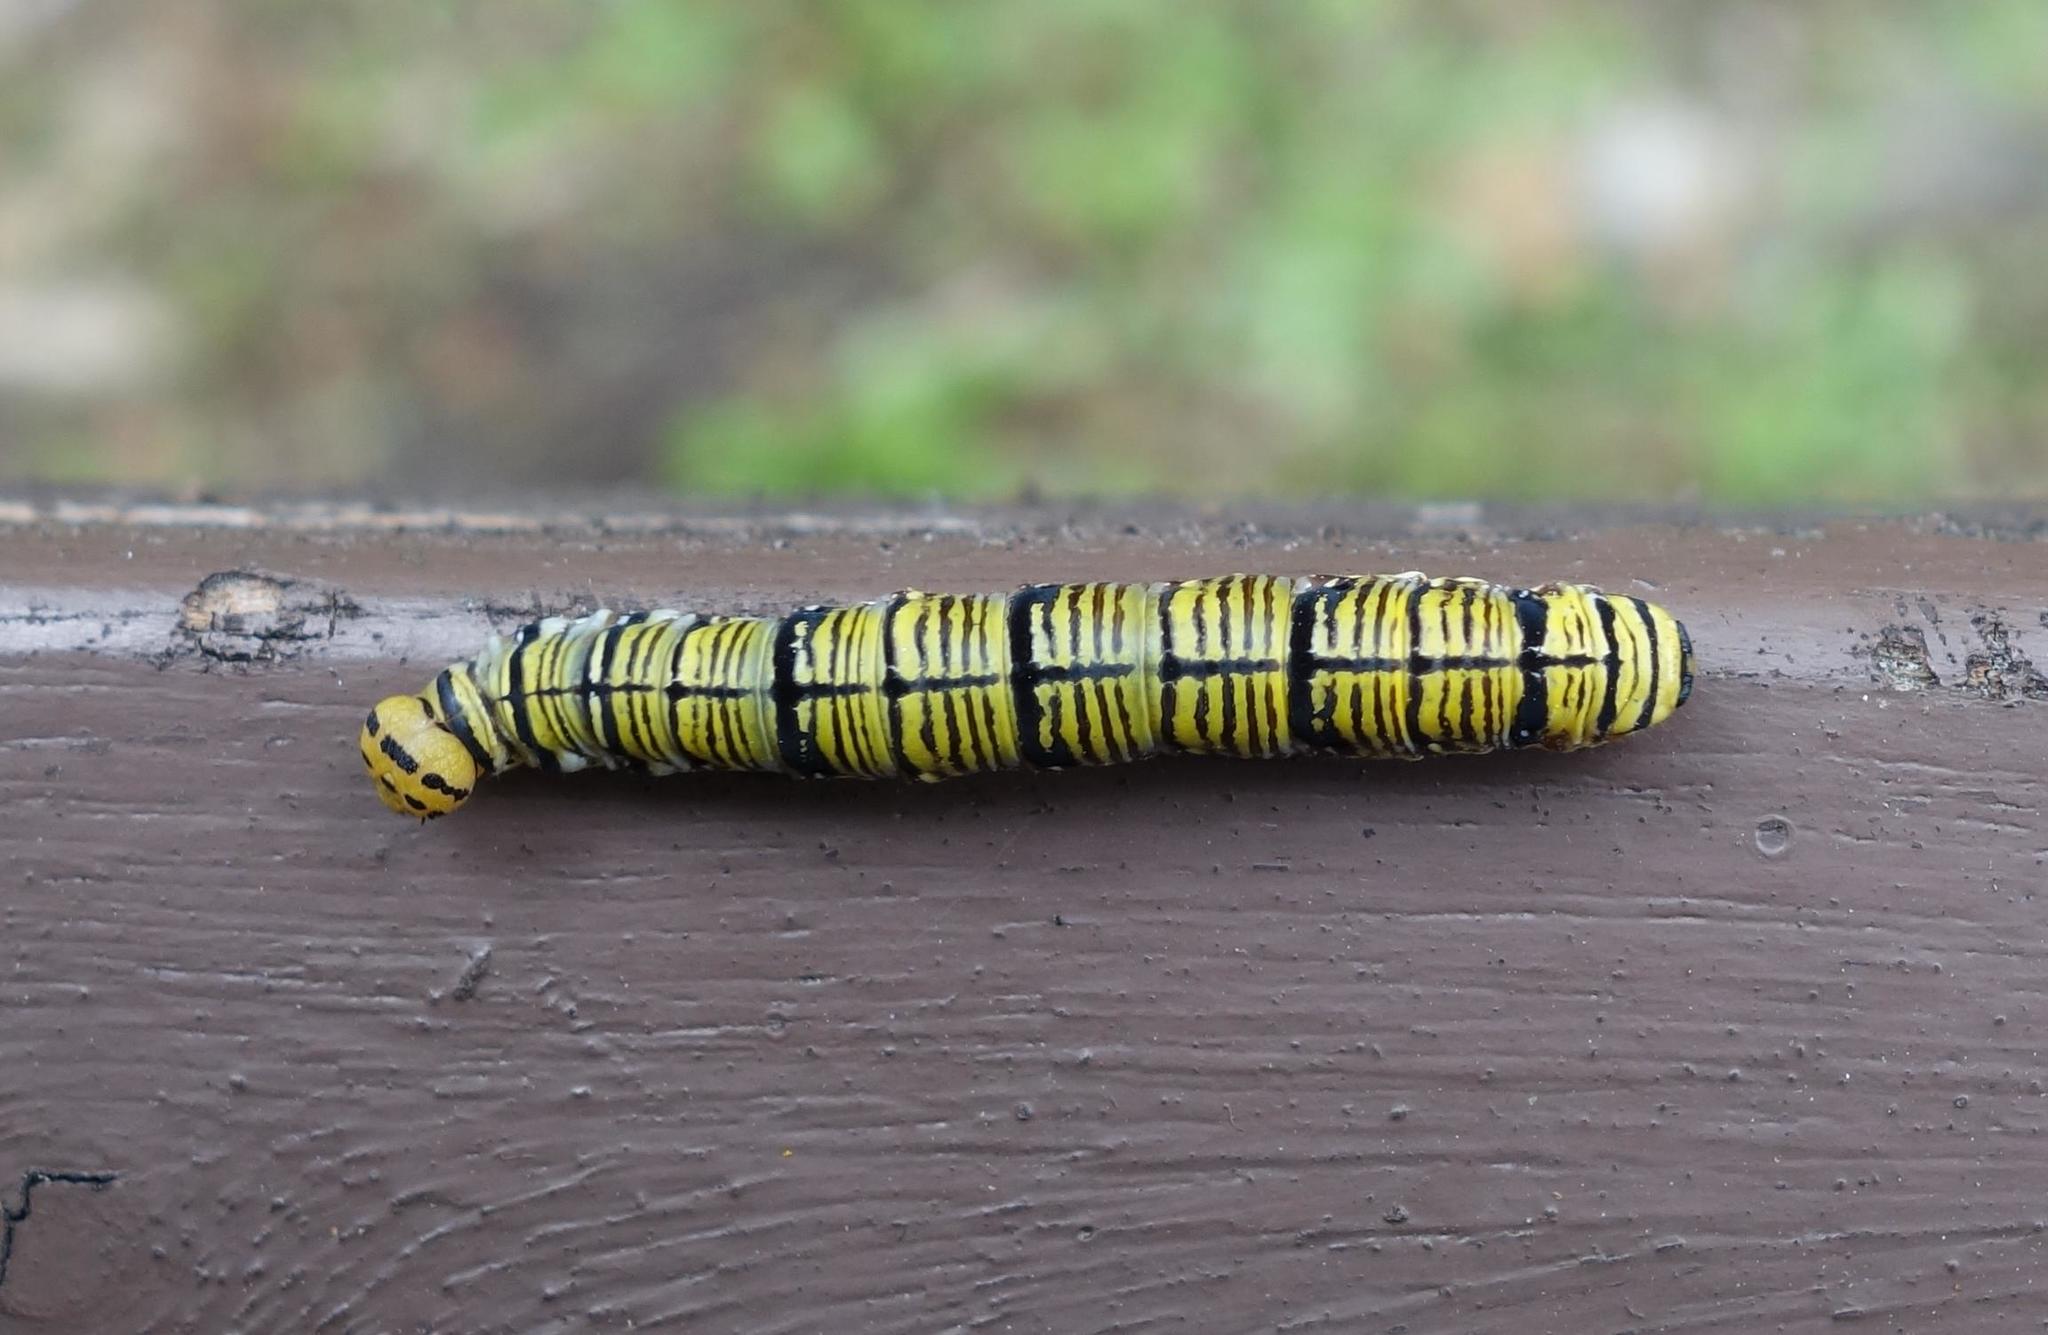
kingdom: Animalia
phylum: Arthropoda
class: Insecta
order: Lepidoptera
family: Hesperiidae
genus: Badamia
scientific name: Badamia exclamationis
